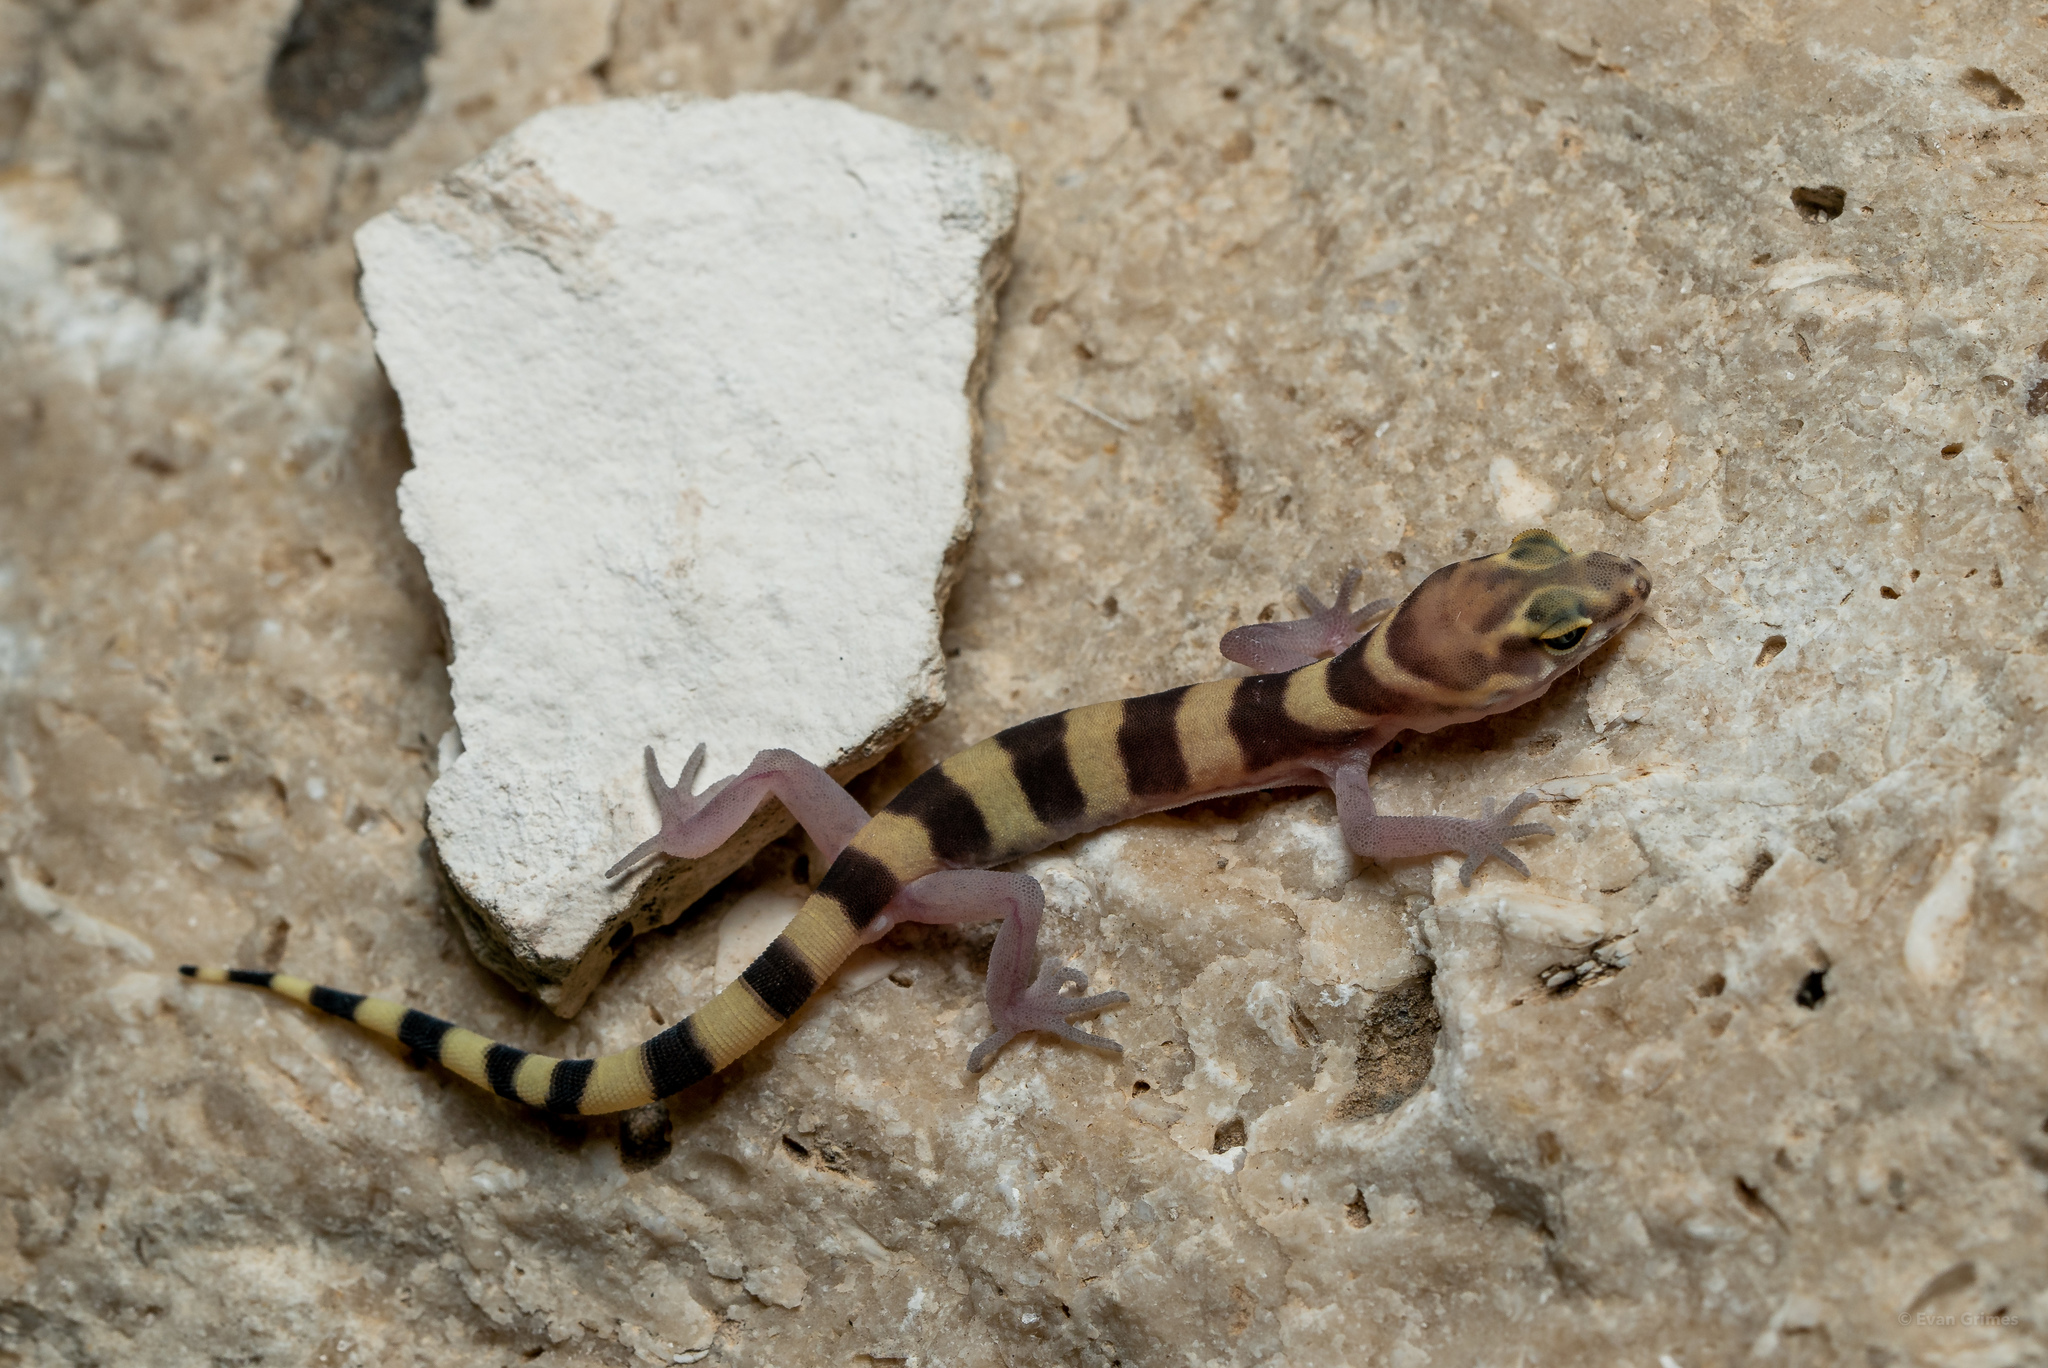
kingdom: Animalia
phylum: Chordata
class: Squamata
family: Eublepharidae
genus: Coleonyx
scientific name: Coleonyx brevis
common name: Texas banded gecko
